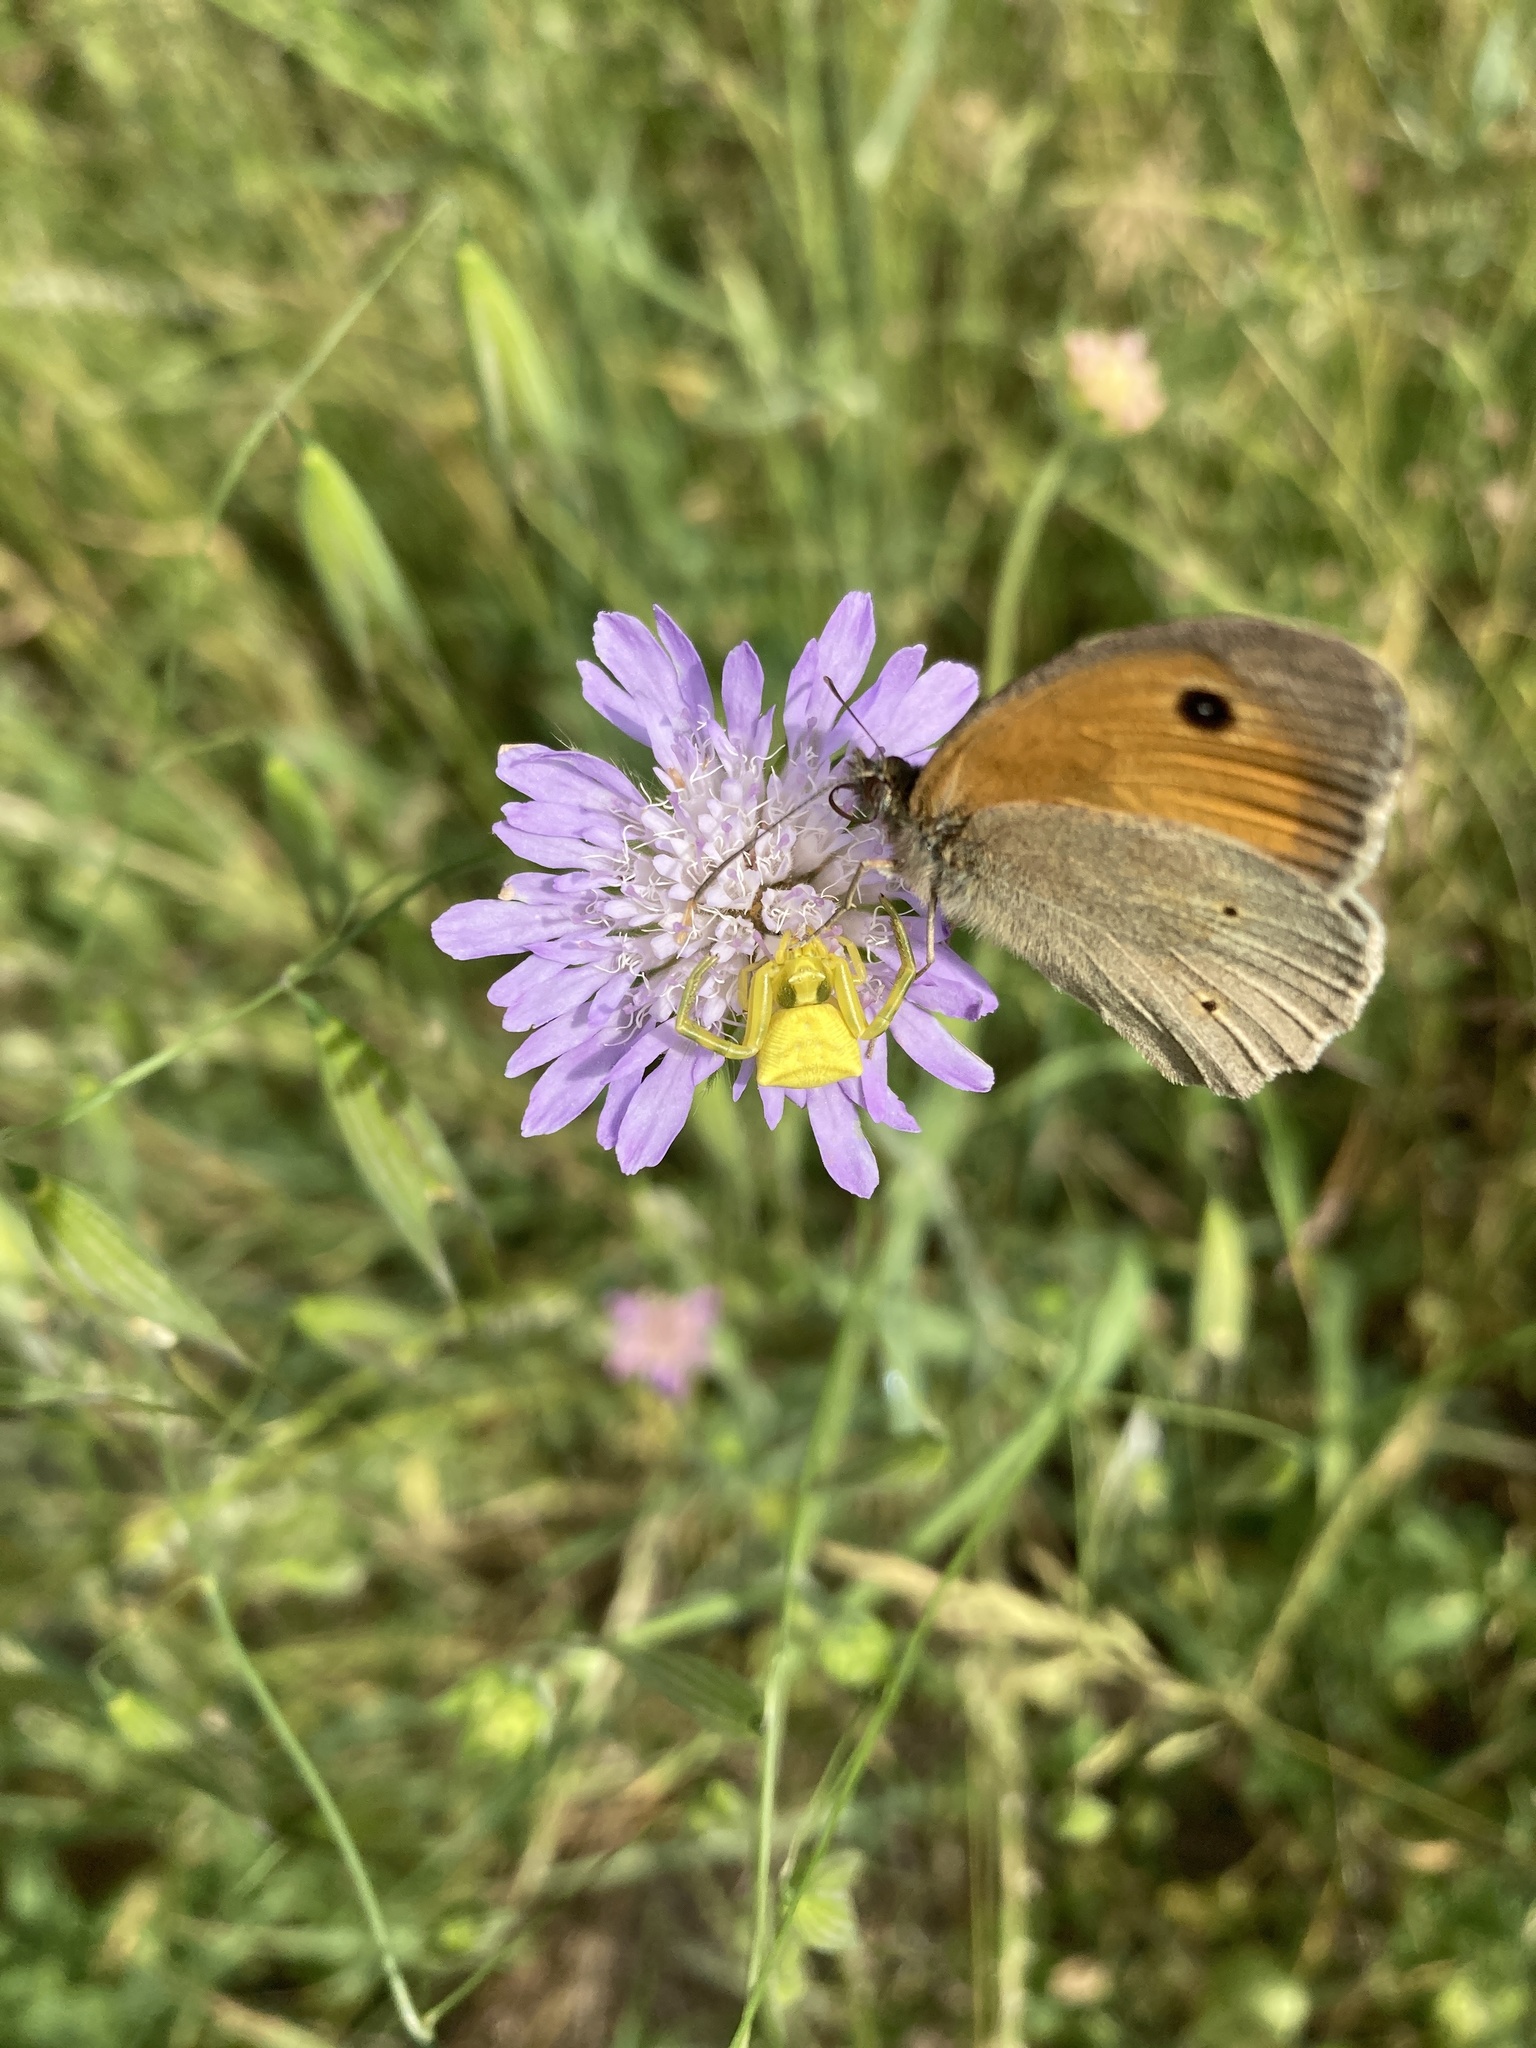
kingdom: Animalia
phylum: Arthropoda
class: Arachnida
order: Araneae
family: Thomisidae
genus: Thomisus
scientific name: Thomisus onustus
